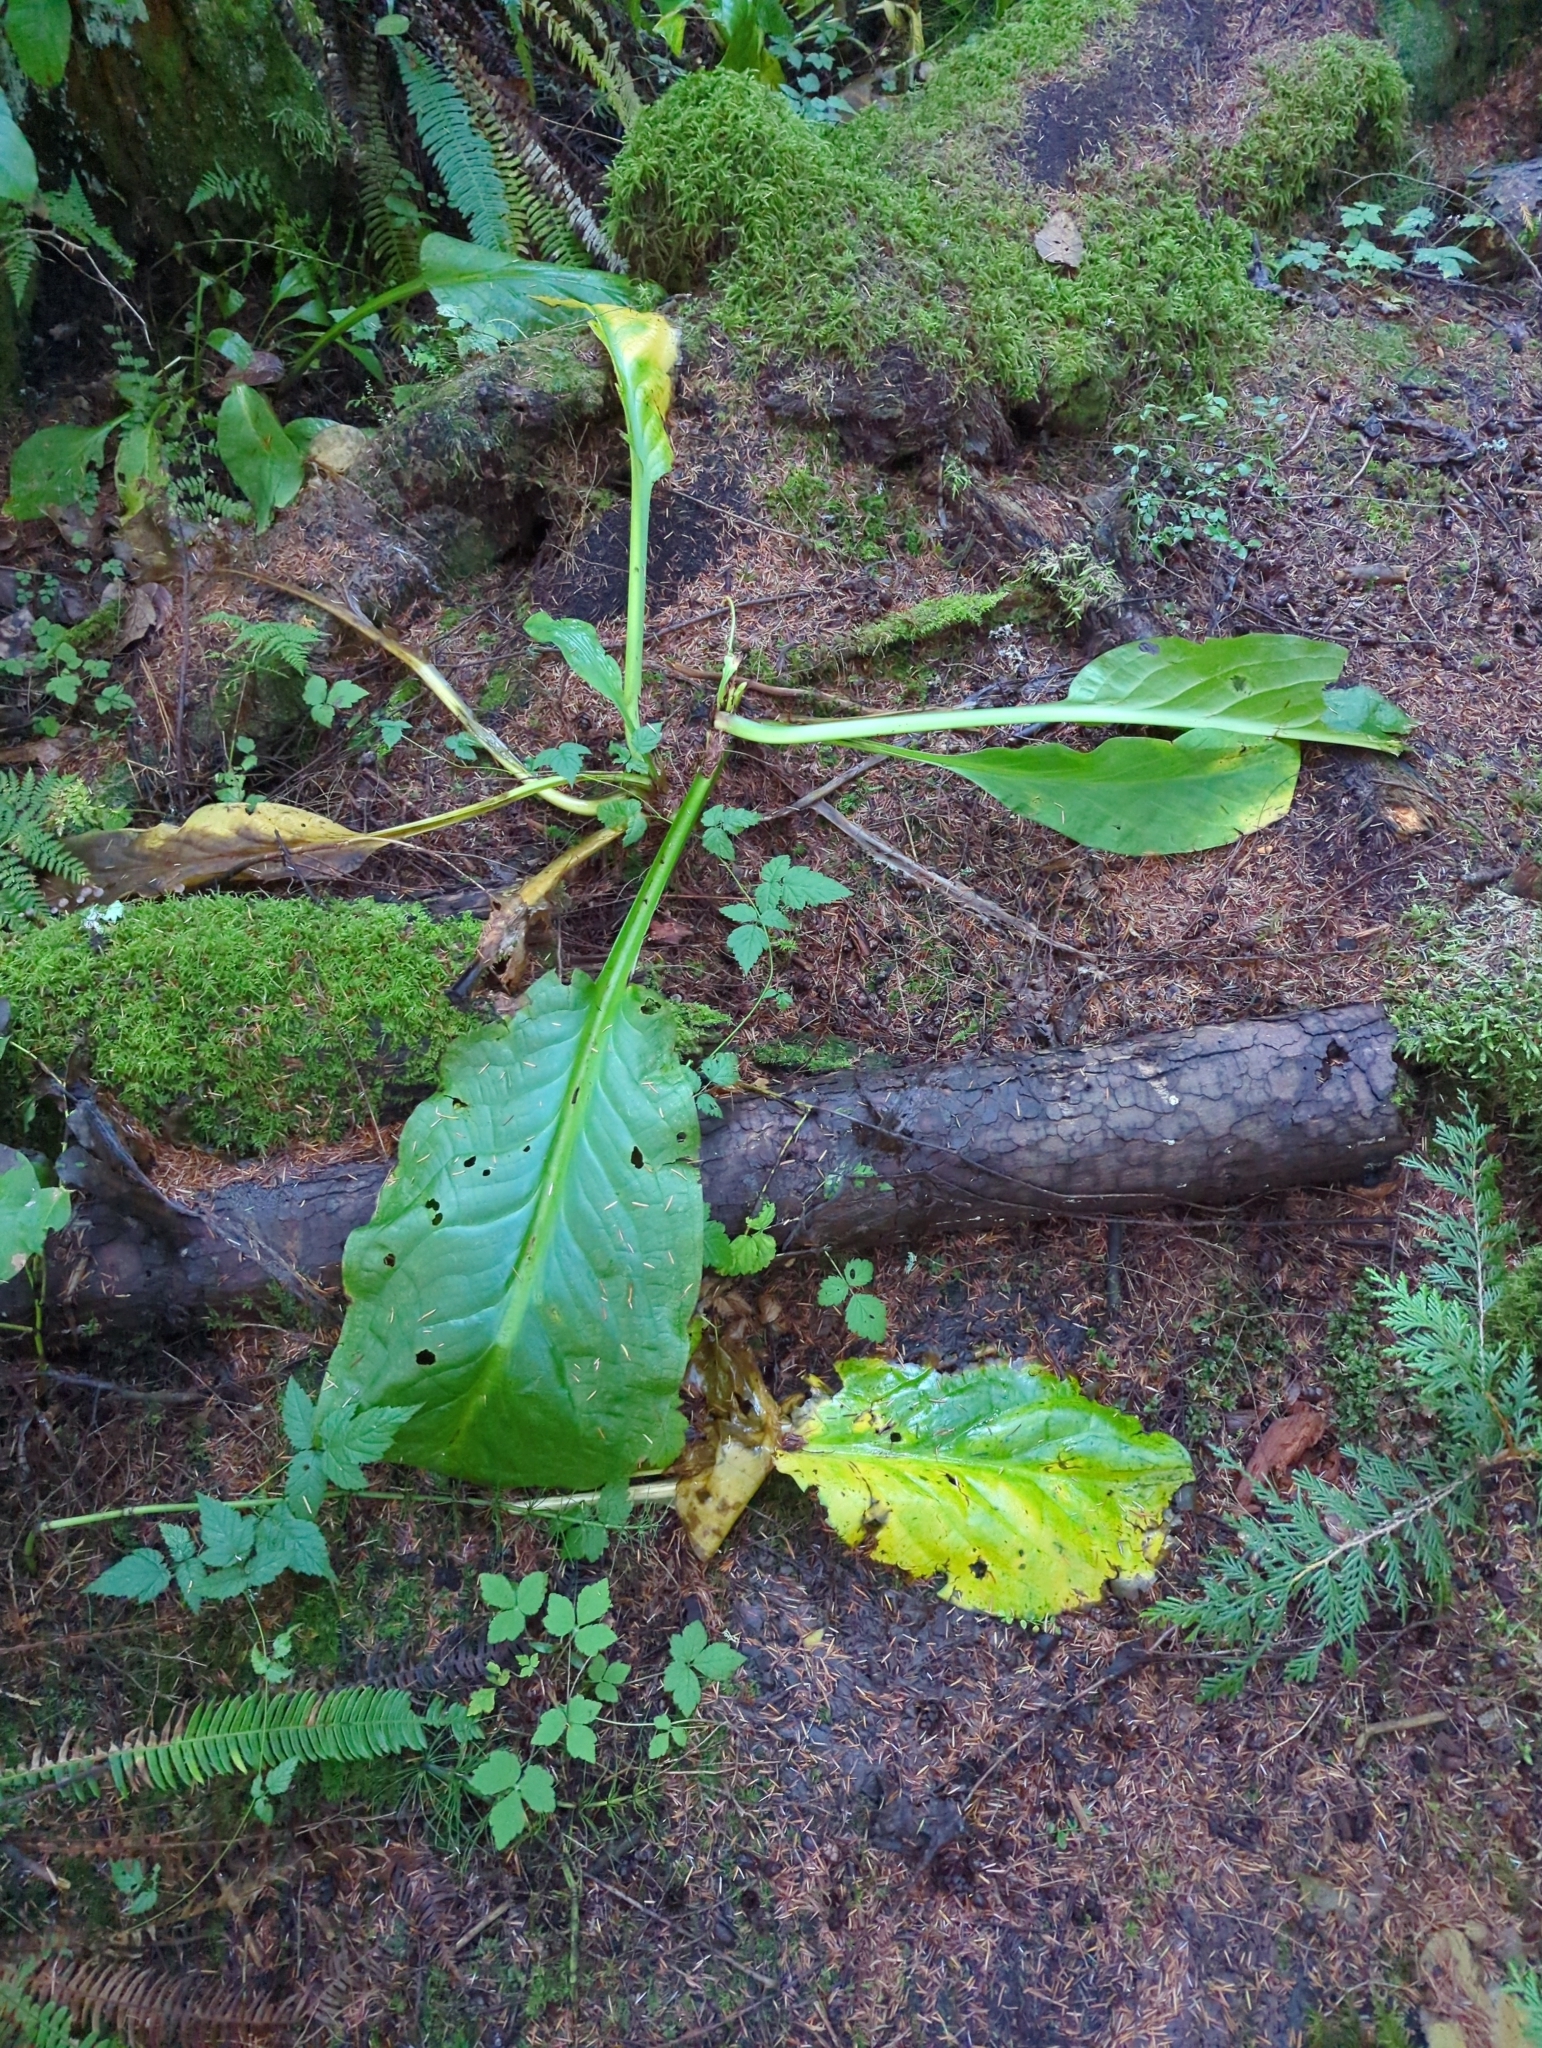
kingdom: Plantae
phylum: Tracheophyta
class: Liliopsida
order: Alismatales
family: Araceae
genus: Lysichiton
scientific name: Lysichiton americanus
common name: American skunk cabbage
